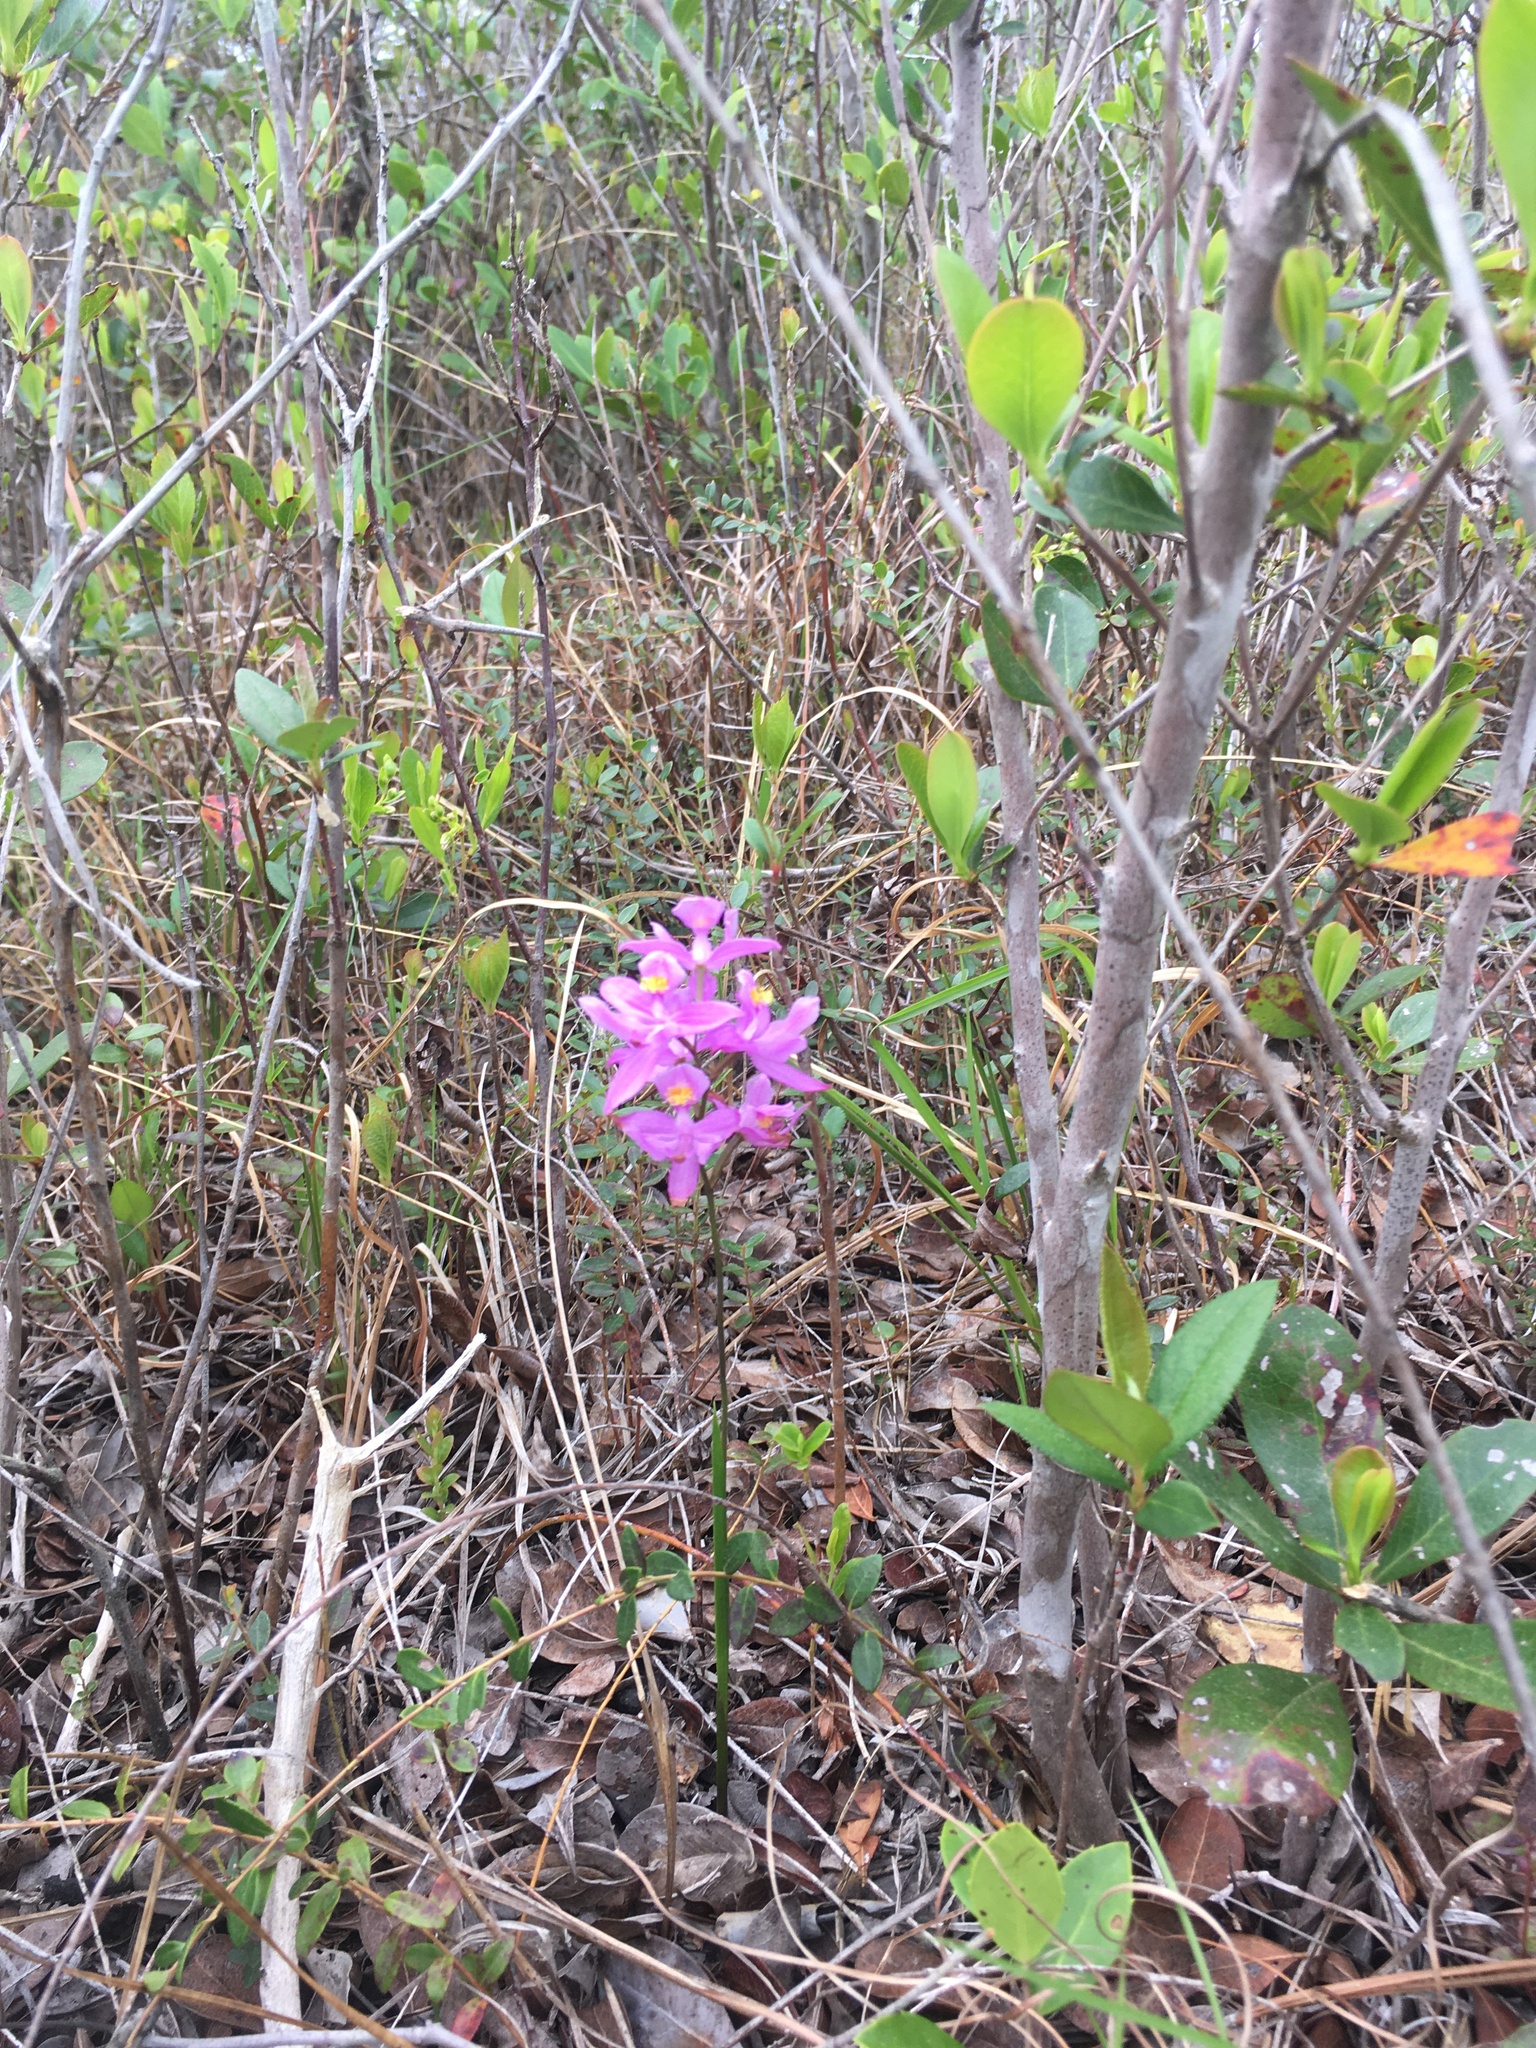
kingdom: Plantae
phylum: Tracheophyta
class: Liliopsida
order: Asparagales
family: Orchidaceae
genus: Calopogon
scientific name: Calopogon barbatus
